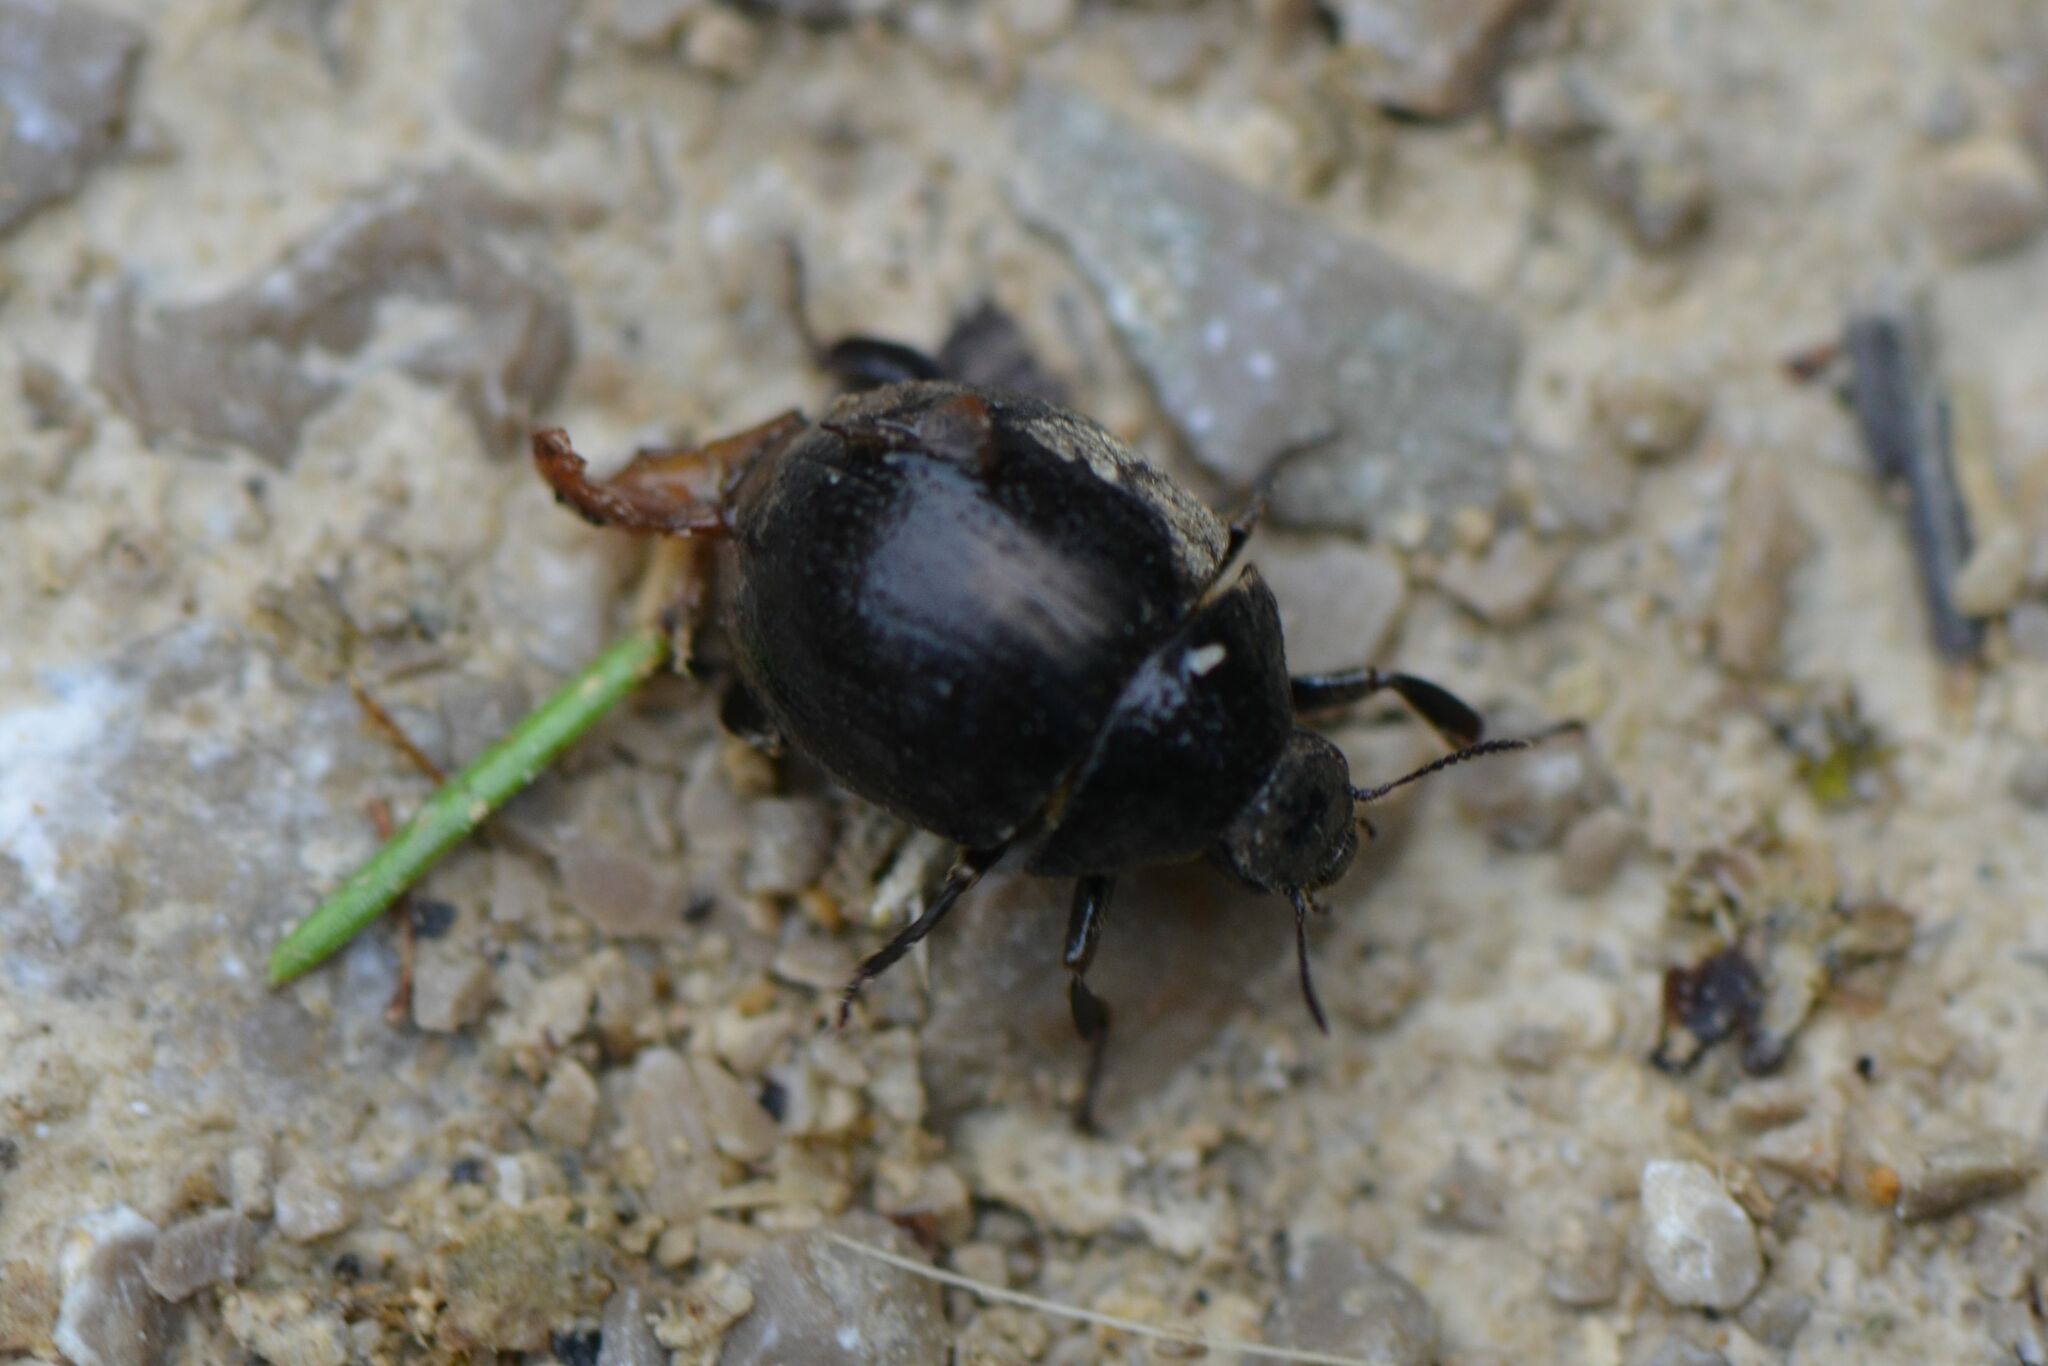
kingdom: Animalia
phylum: Arthropoda
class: Insecta
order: Coleoptera
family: Byrrhidae
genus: Byrrhus
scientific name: Byrrhus luniger
